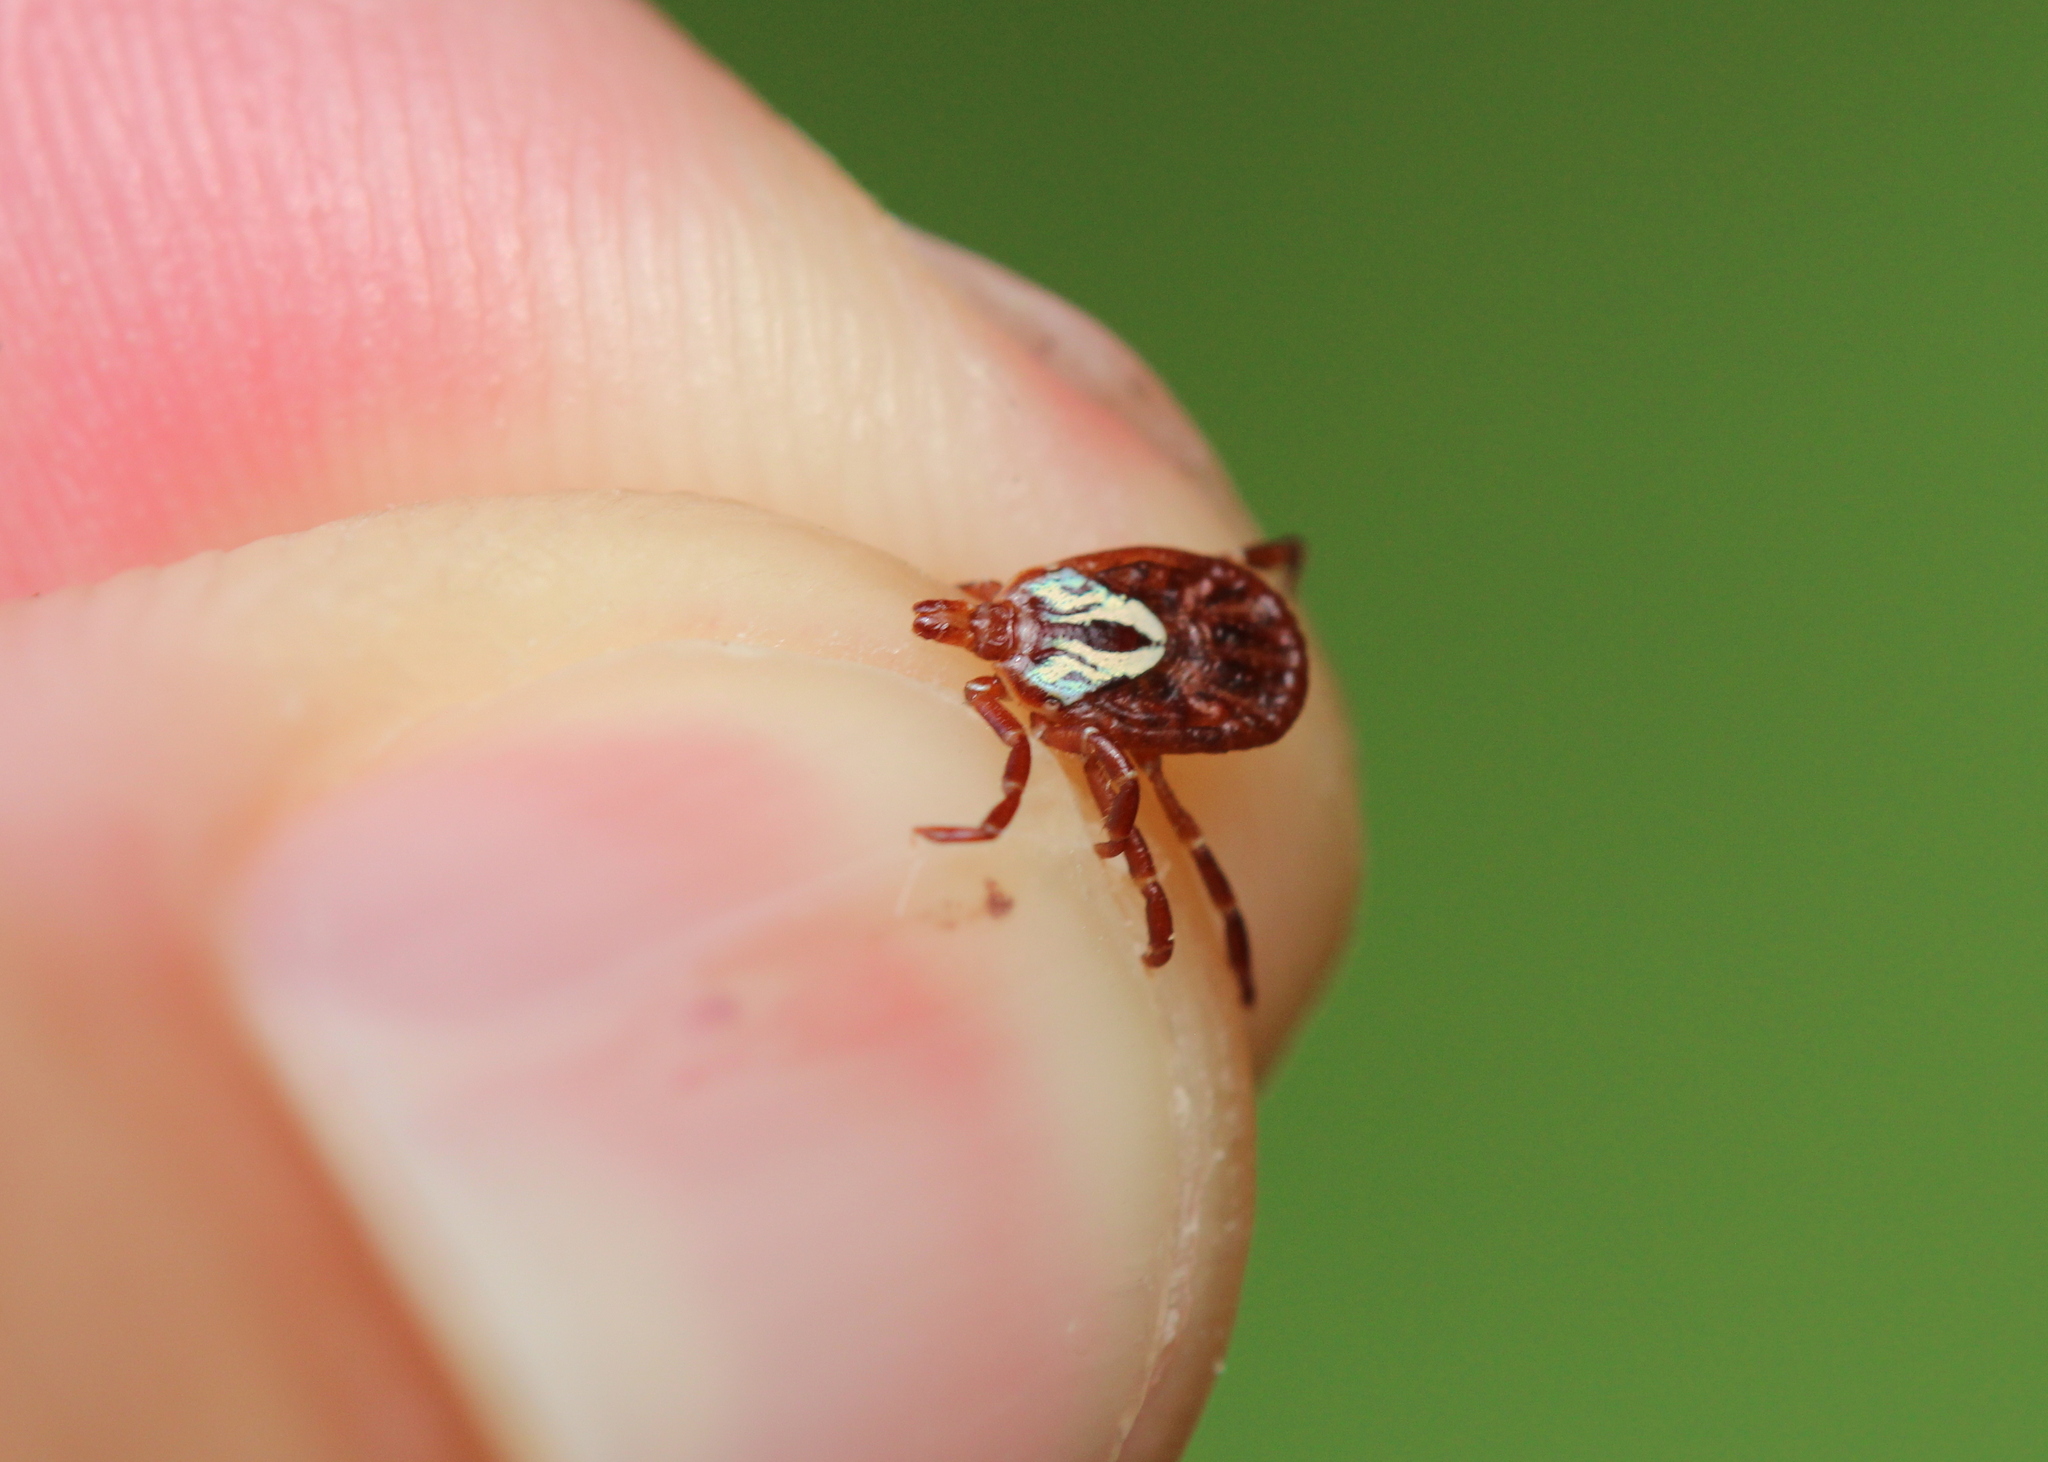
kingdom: Animalia
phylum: Arthropoda
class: Arachnida
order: Ixodida
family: Ixodidae
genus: Amblyomma
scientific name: Amblyomma maculatum
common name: Gulf coast tick
